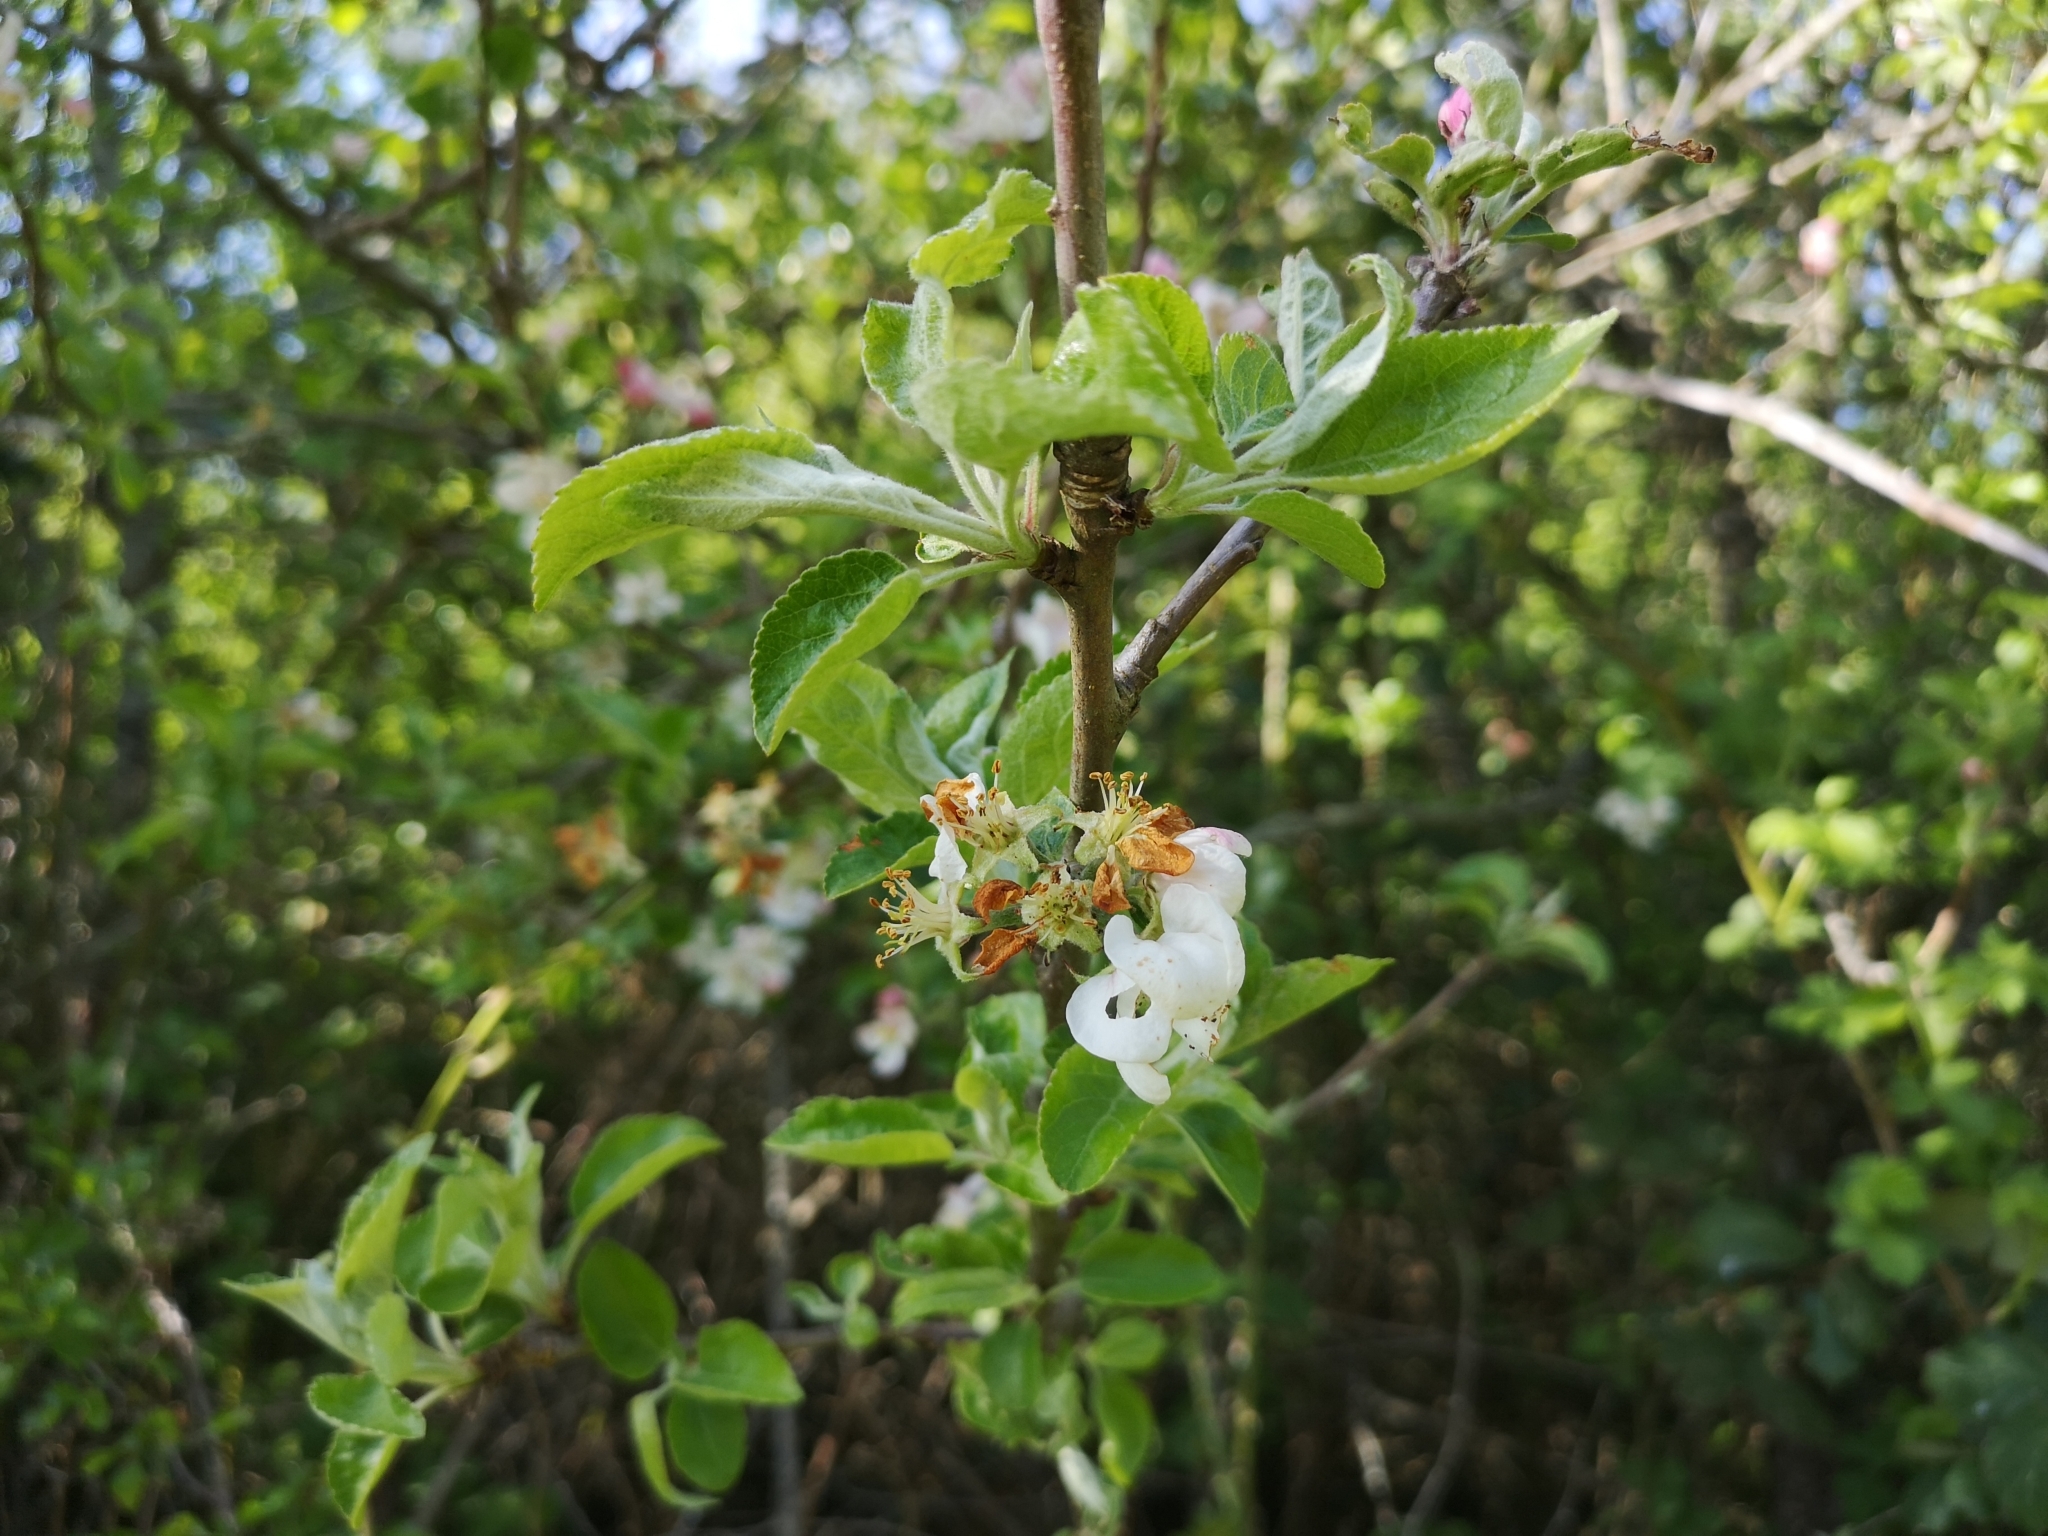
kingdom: Plantae
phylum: Tracheophyta
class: Magnoliopsida
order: Rosales
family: Rosaceae
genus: Malus
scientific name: Malus domestica
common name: Apple
